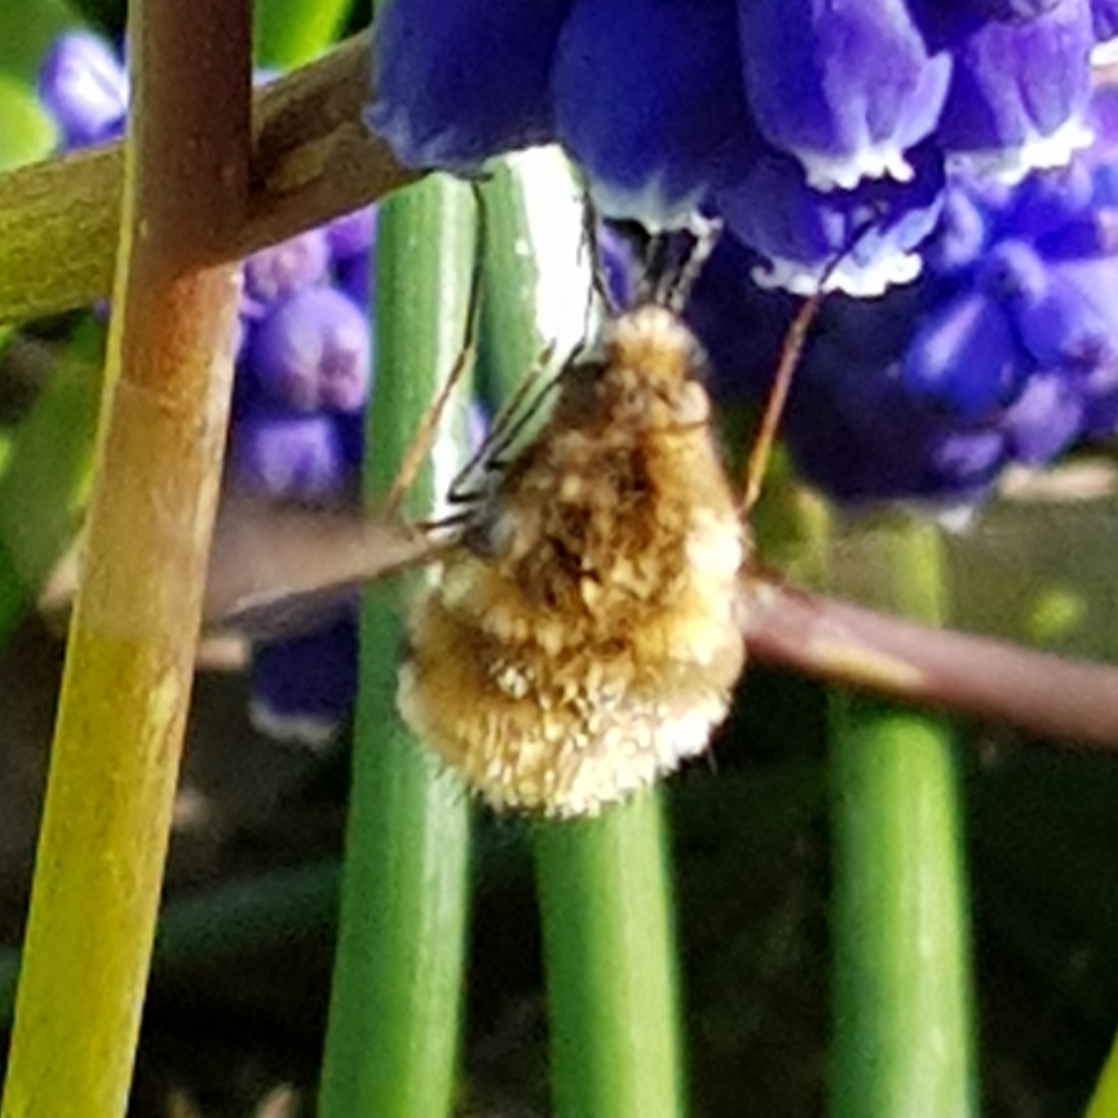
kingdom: Animalia
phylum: Arthropoda
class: Insecta
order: Diptera
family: Bombyliidae
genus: Bombylius
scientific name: Bombylius major
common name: Bee fly
